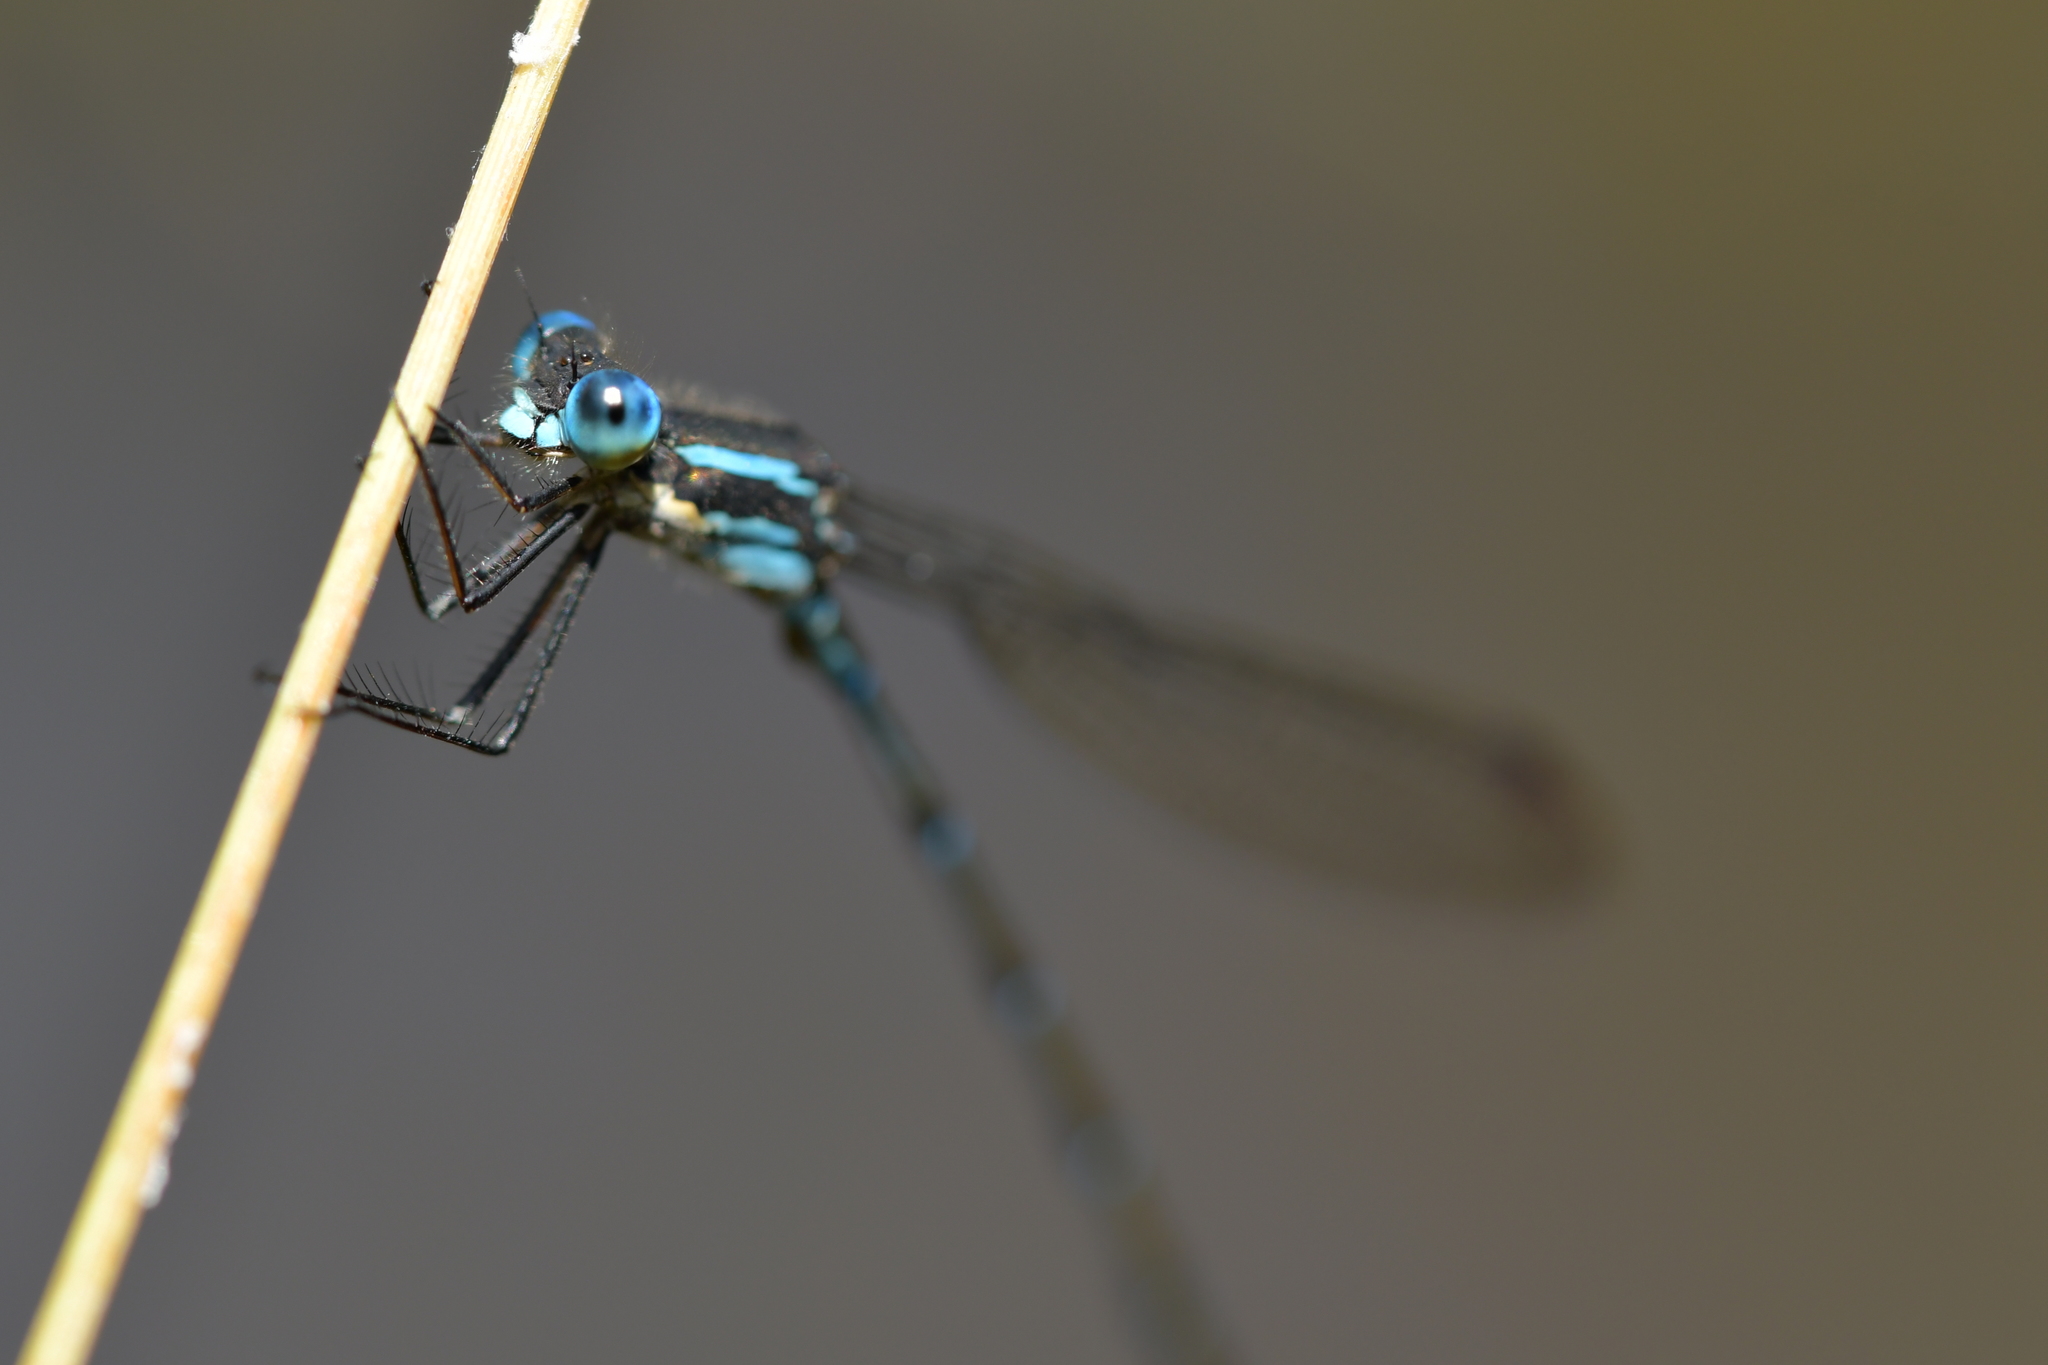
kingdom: Animalia
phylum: Arthropoda
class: Insecta
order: Odonata
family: Lestidae
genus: Austrolestes
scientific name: Austrolestes colensonis
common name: Blue damselfly
